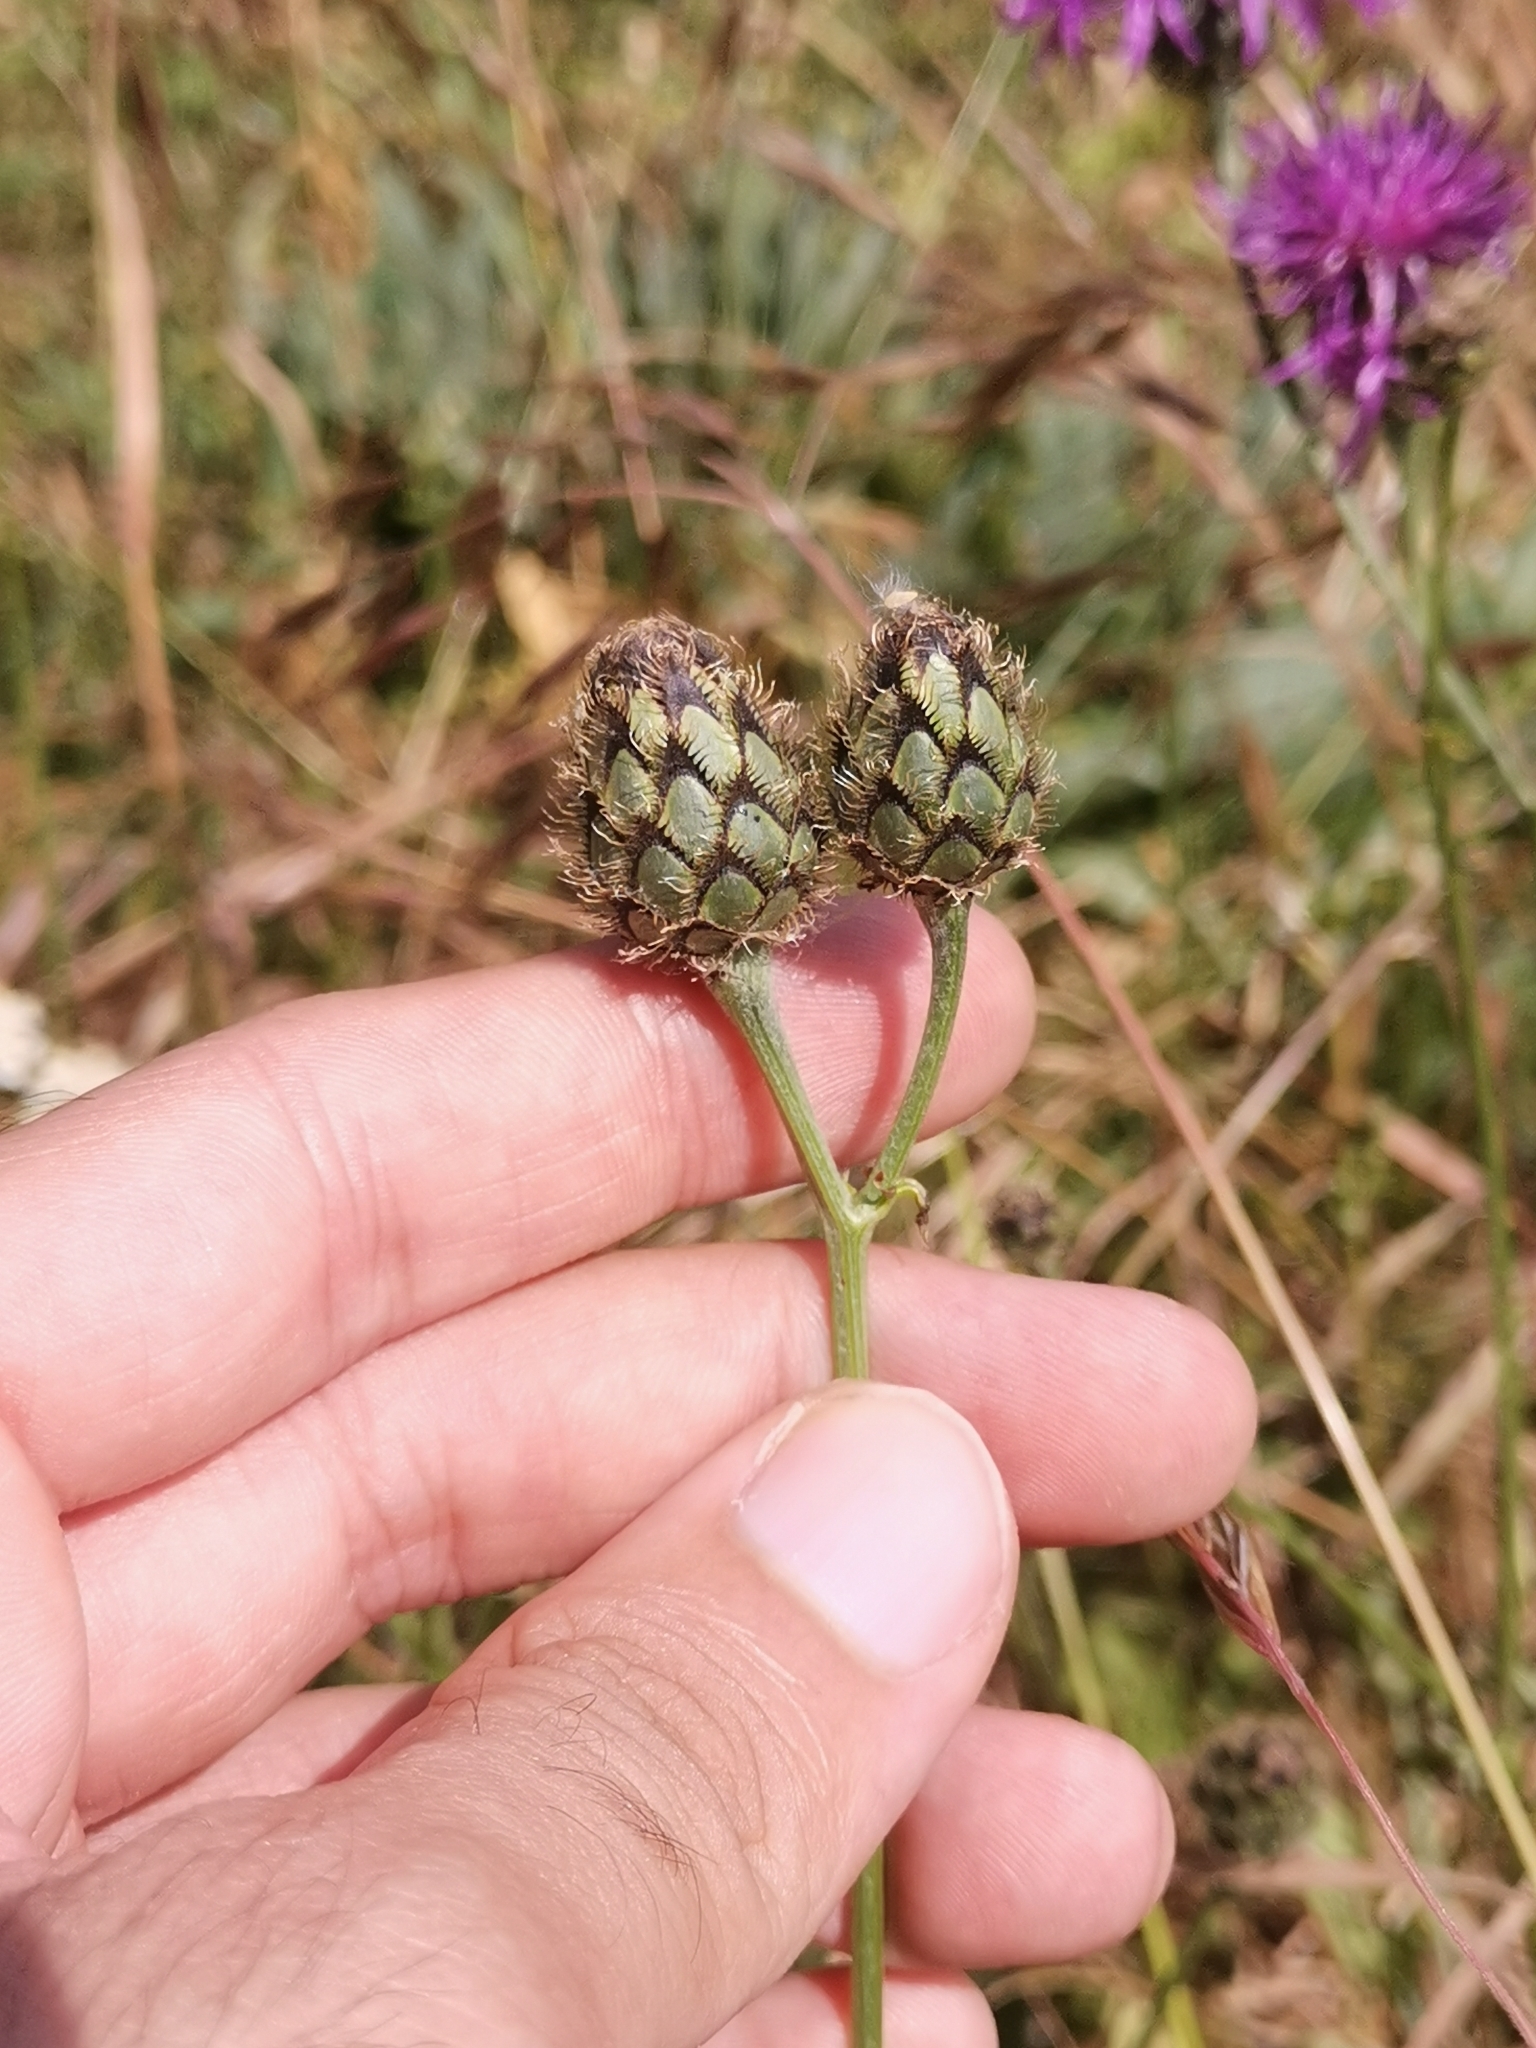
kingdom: Plantae
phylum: Tracheophyta
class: Magnoliopsida
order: Asterales
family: Asteraceae
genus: Centaurea
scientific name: Centaurea scabiosa
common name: Greater knapweed
